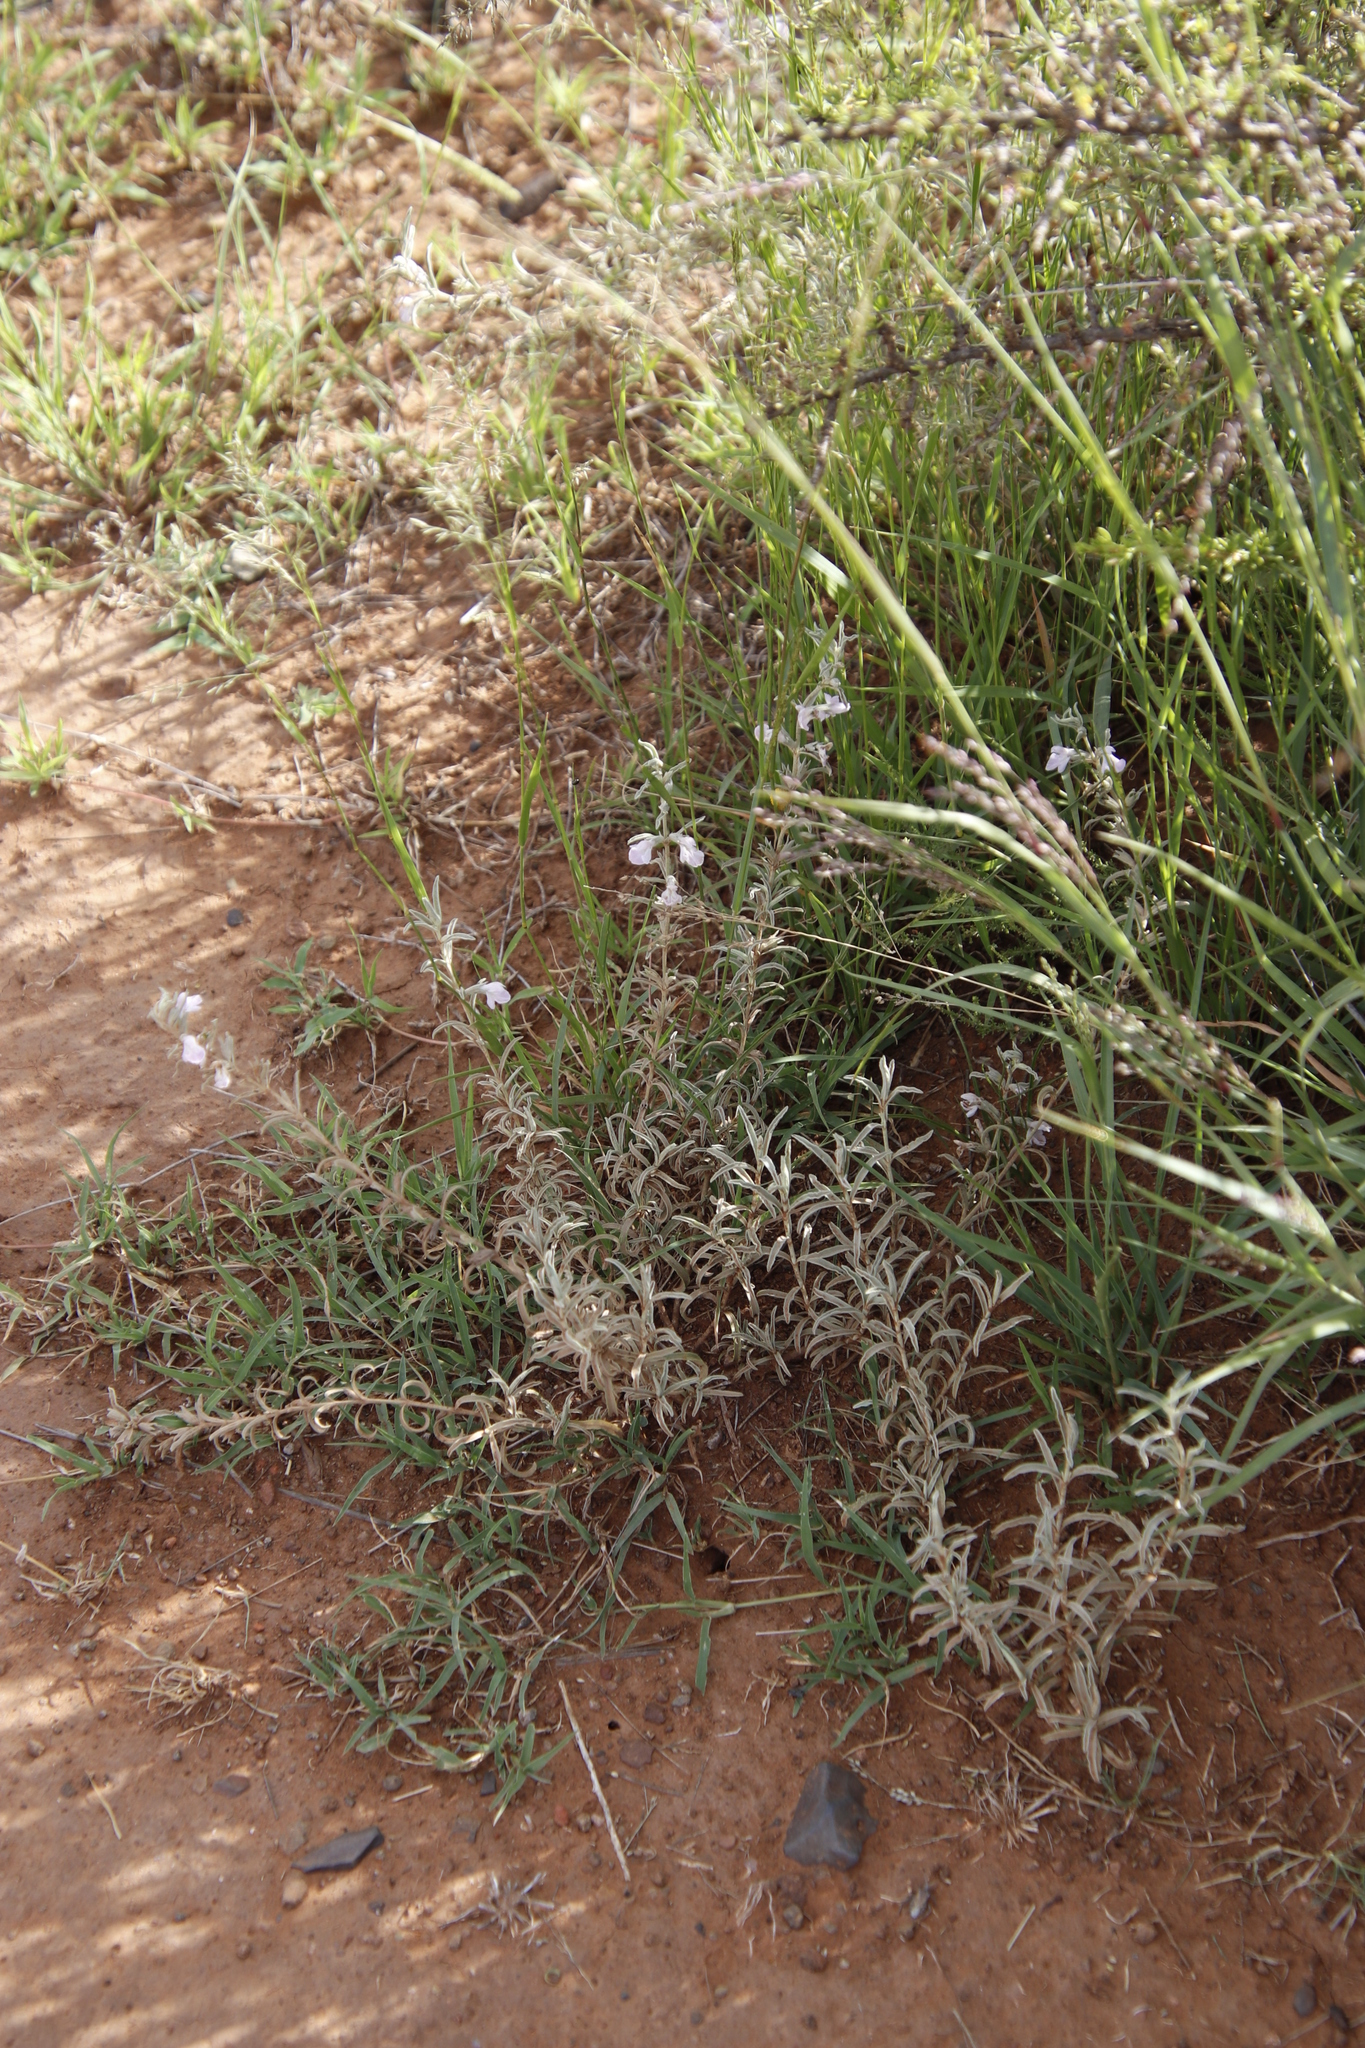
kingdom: Plantae
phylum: Tracheophyta
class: Magnoliopsida
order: Lamiales
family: Lamiaceae
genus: Stachys
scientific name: Stachys hyssopoides
